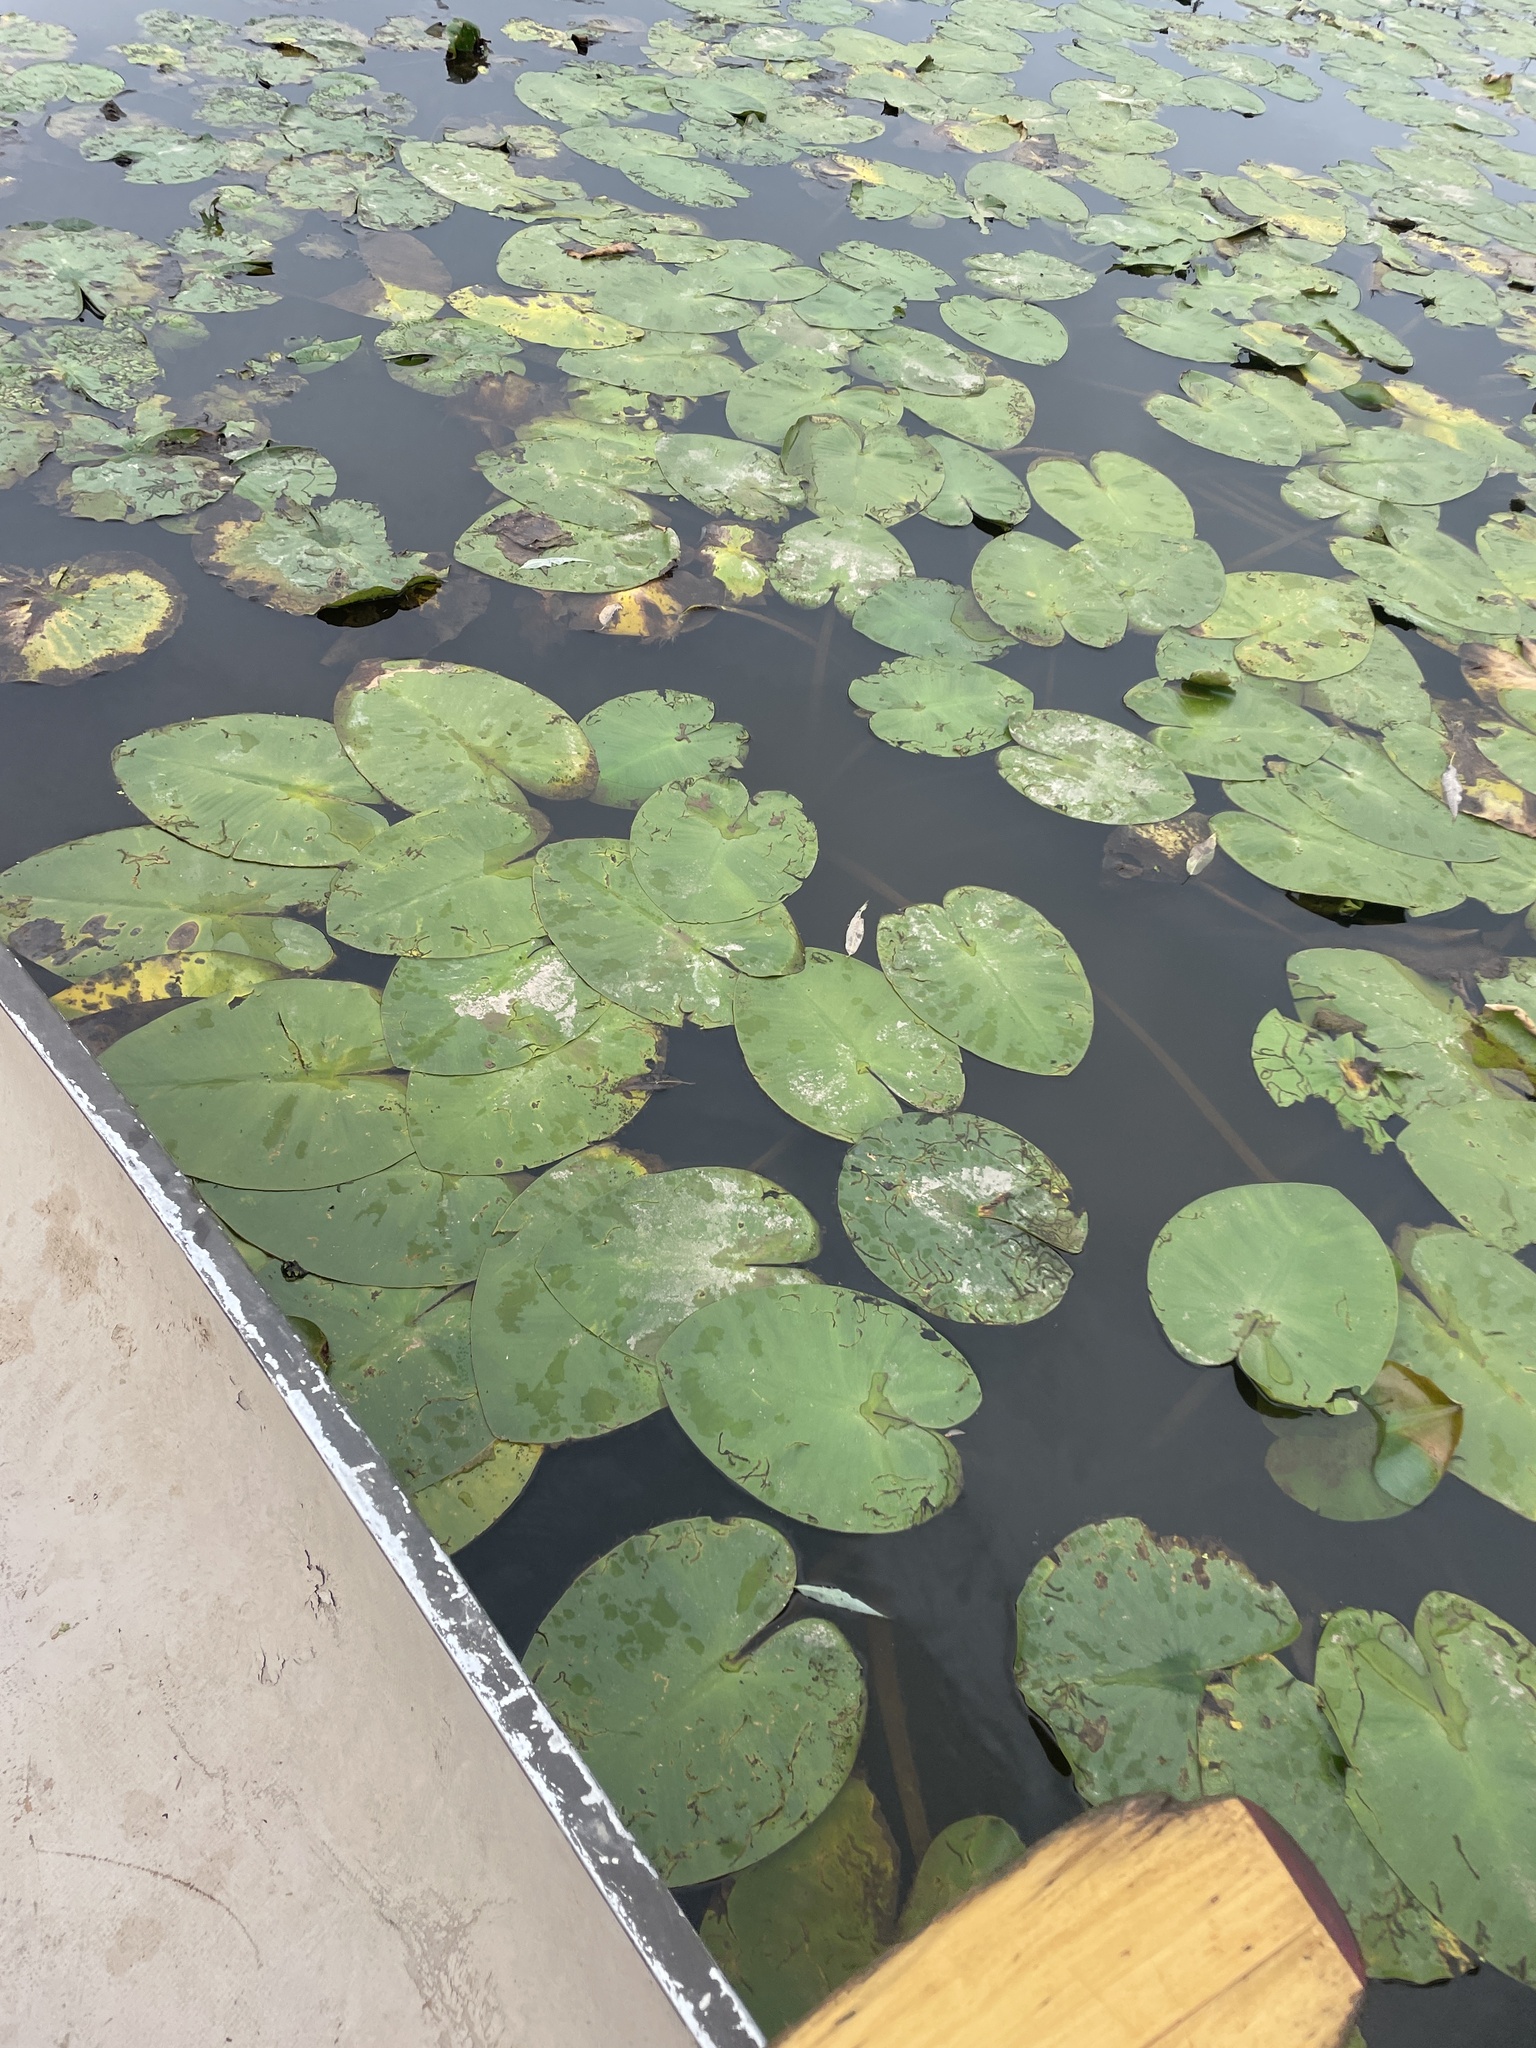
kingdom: Plantae
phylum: Tracheophyta
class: Magnoliopsida
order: Nymphaeales
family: Nymphaeaceae
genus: Nuphar
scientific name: Nuphar variegata
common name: Beaver-root
